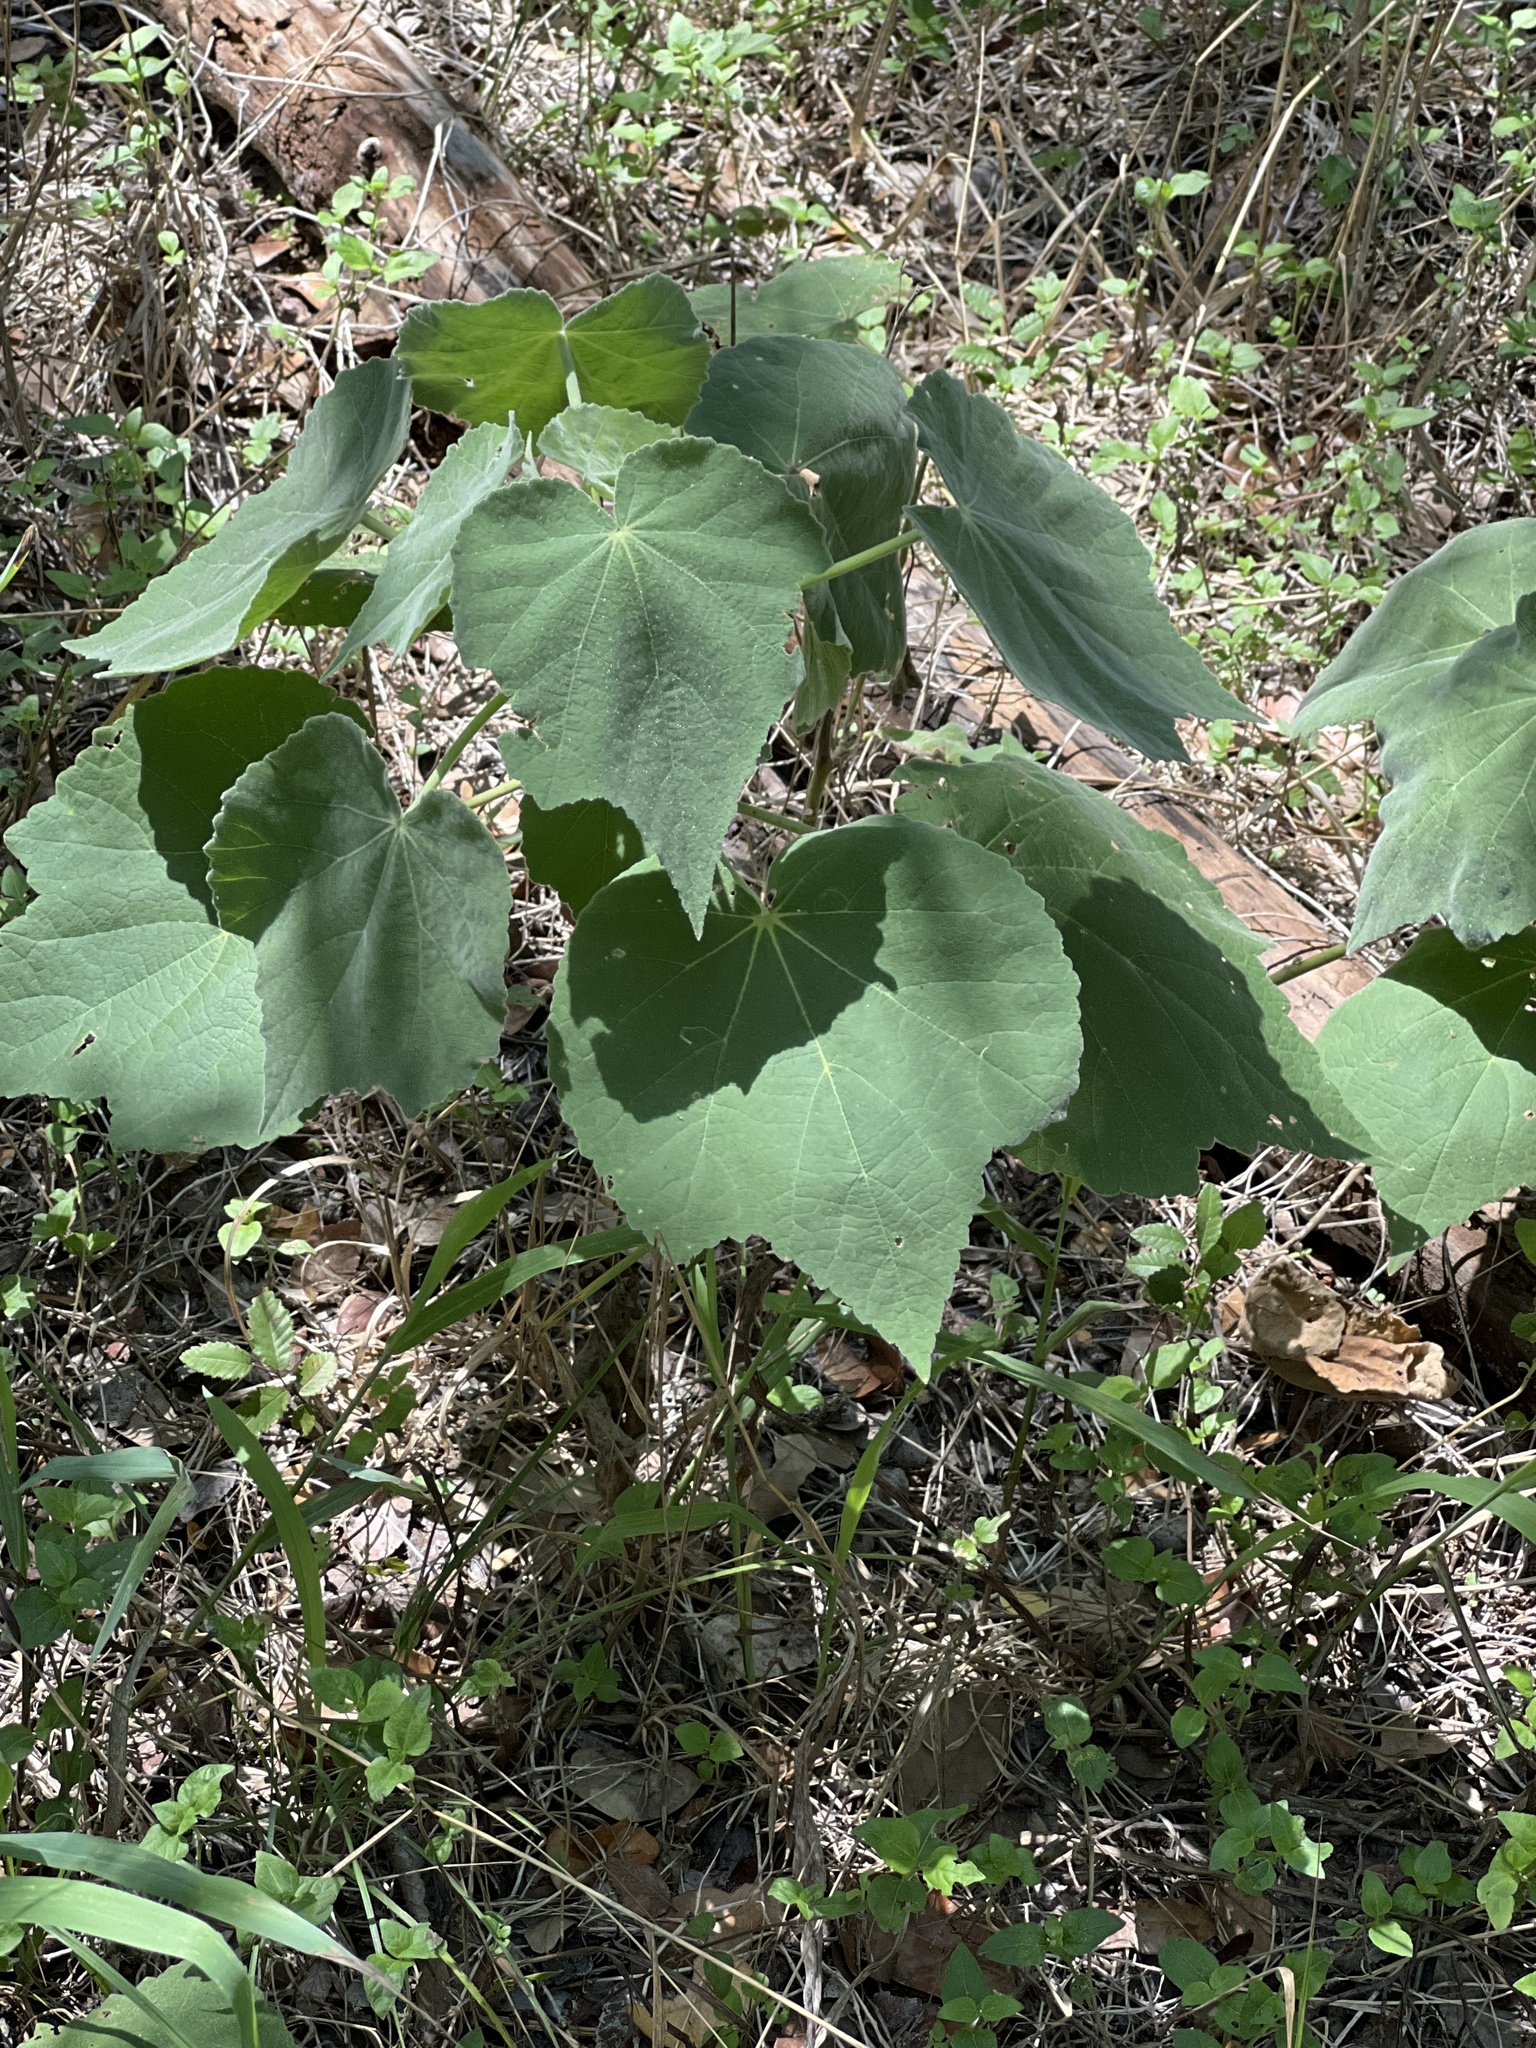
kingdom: Plantae
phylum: Tracheophyta
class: Magnoliopsida
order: Malvales
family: Malvaceae
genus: Allowissadula
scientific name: Allowissadula holosericea
